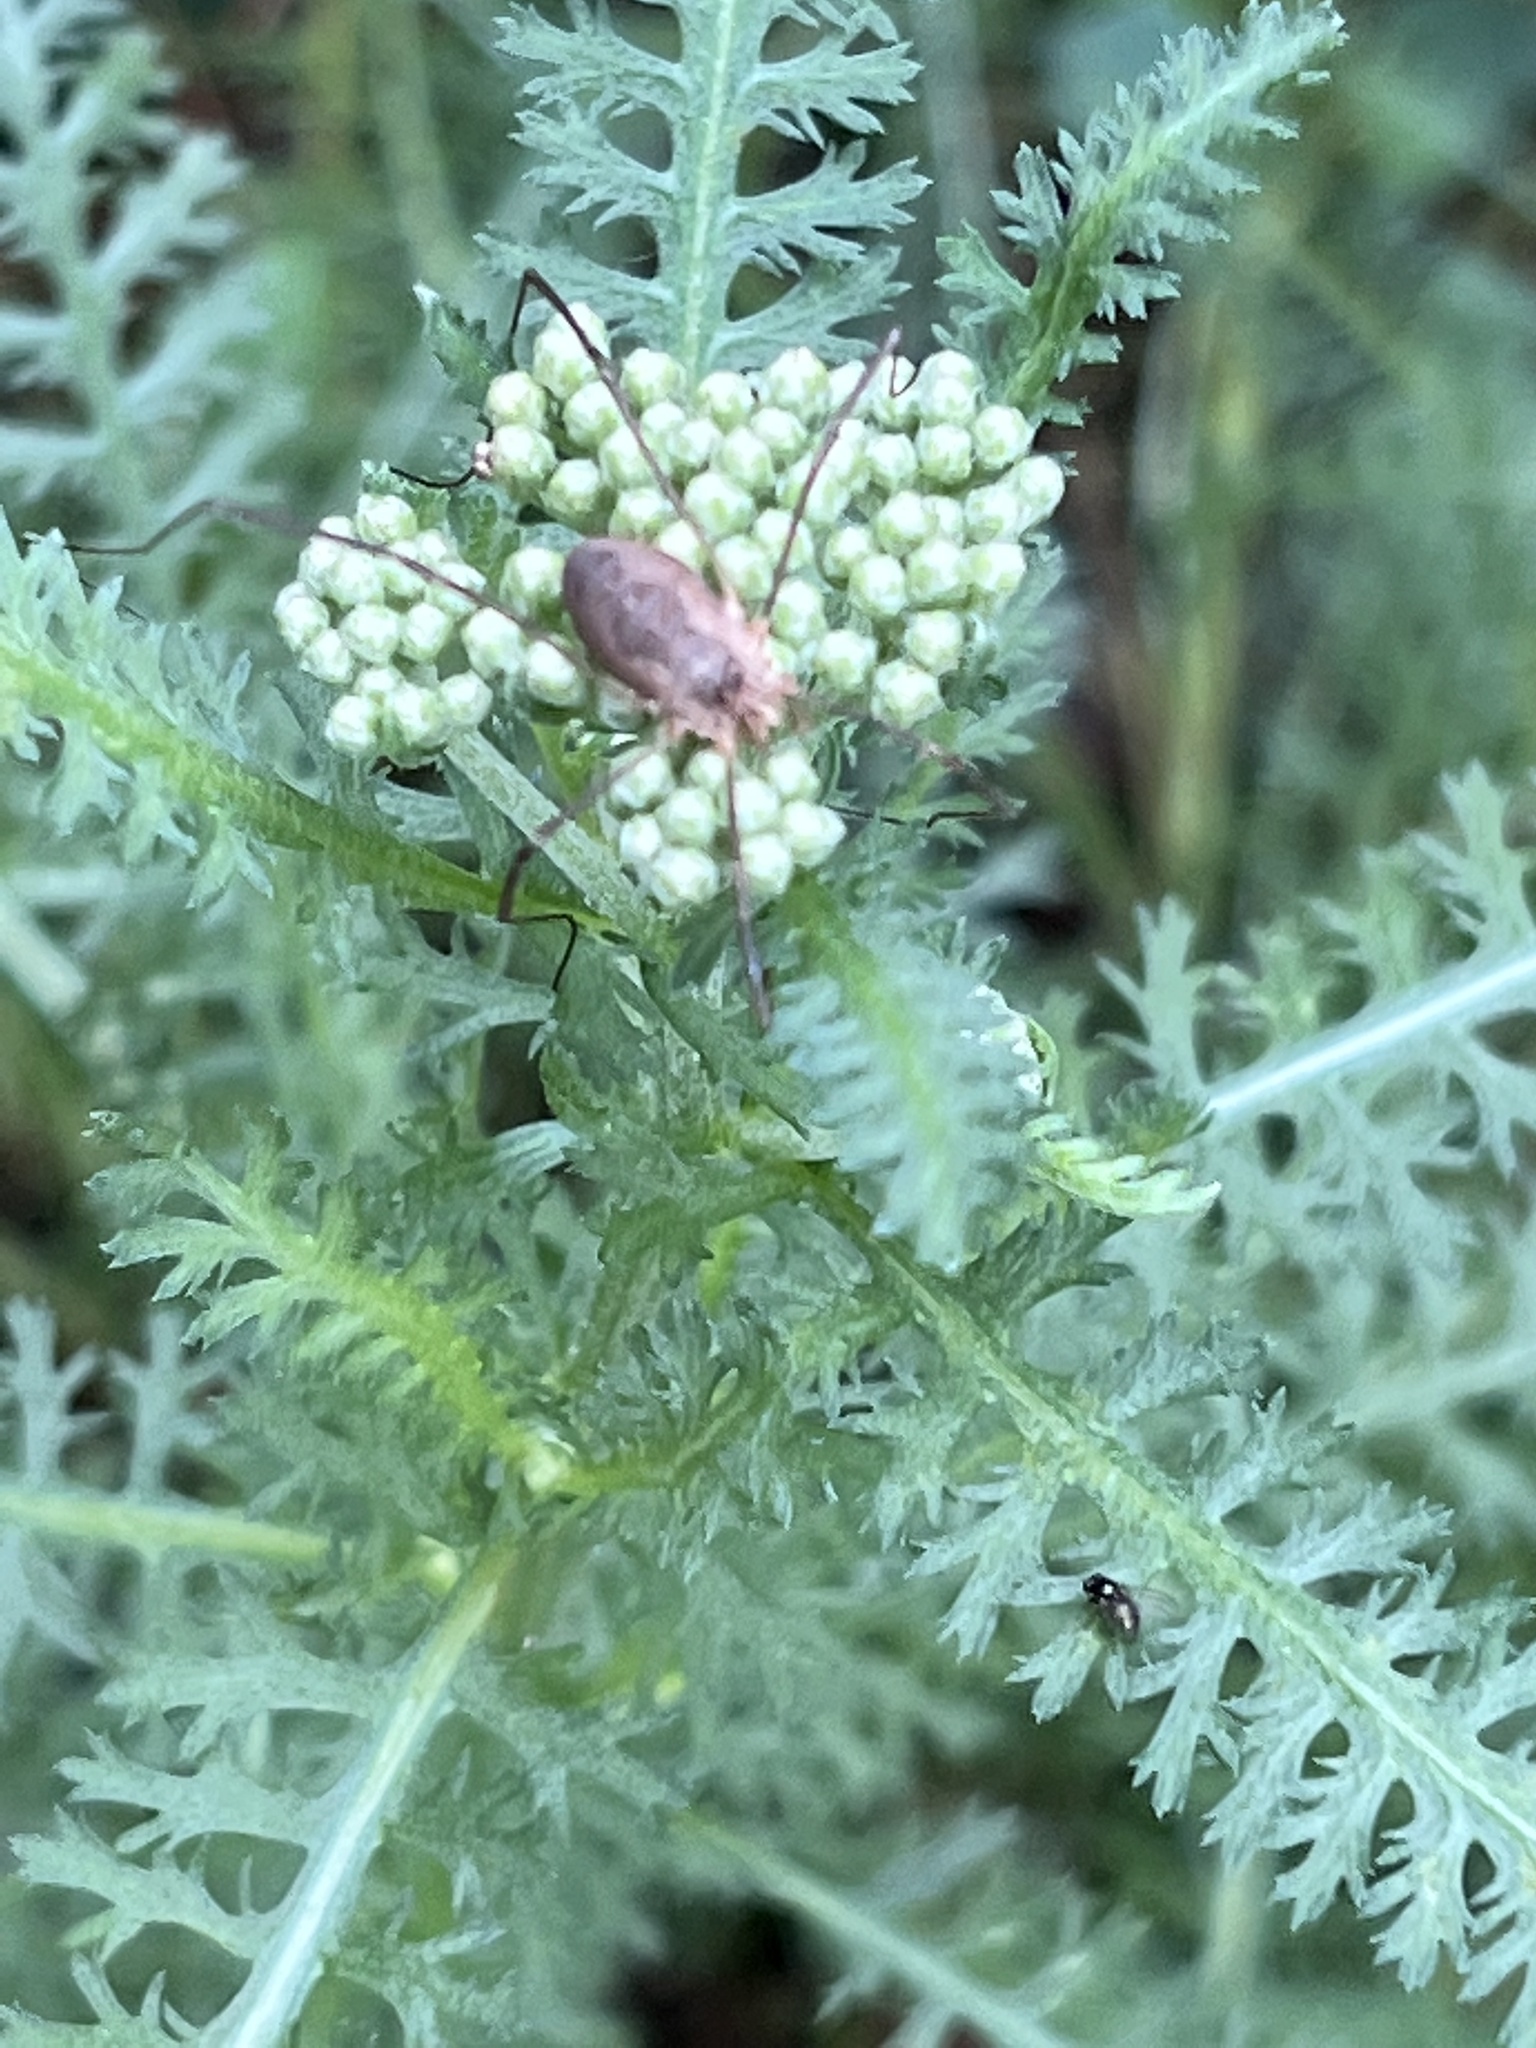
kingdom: Animalia
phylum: Arthropoda
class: Arachnida
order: Opiliones
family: Phalangiidae
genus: Phalangium
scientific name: Phalangium opilio
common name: Daddy longleg
